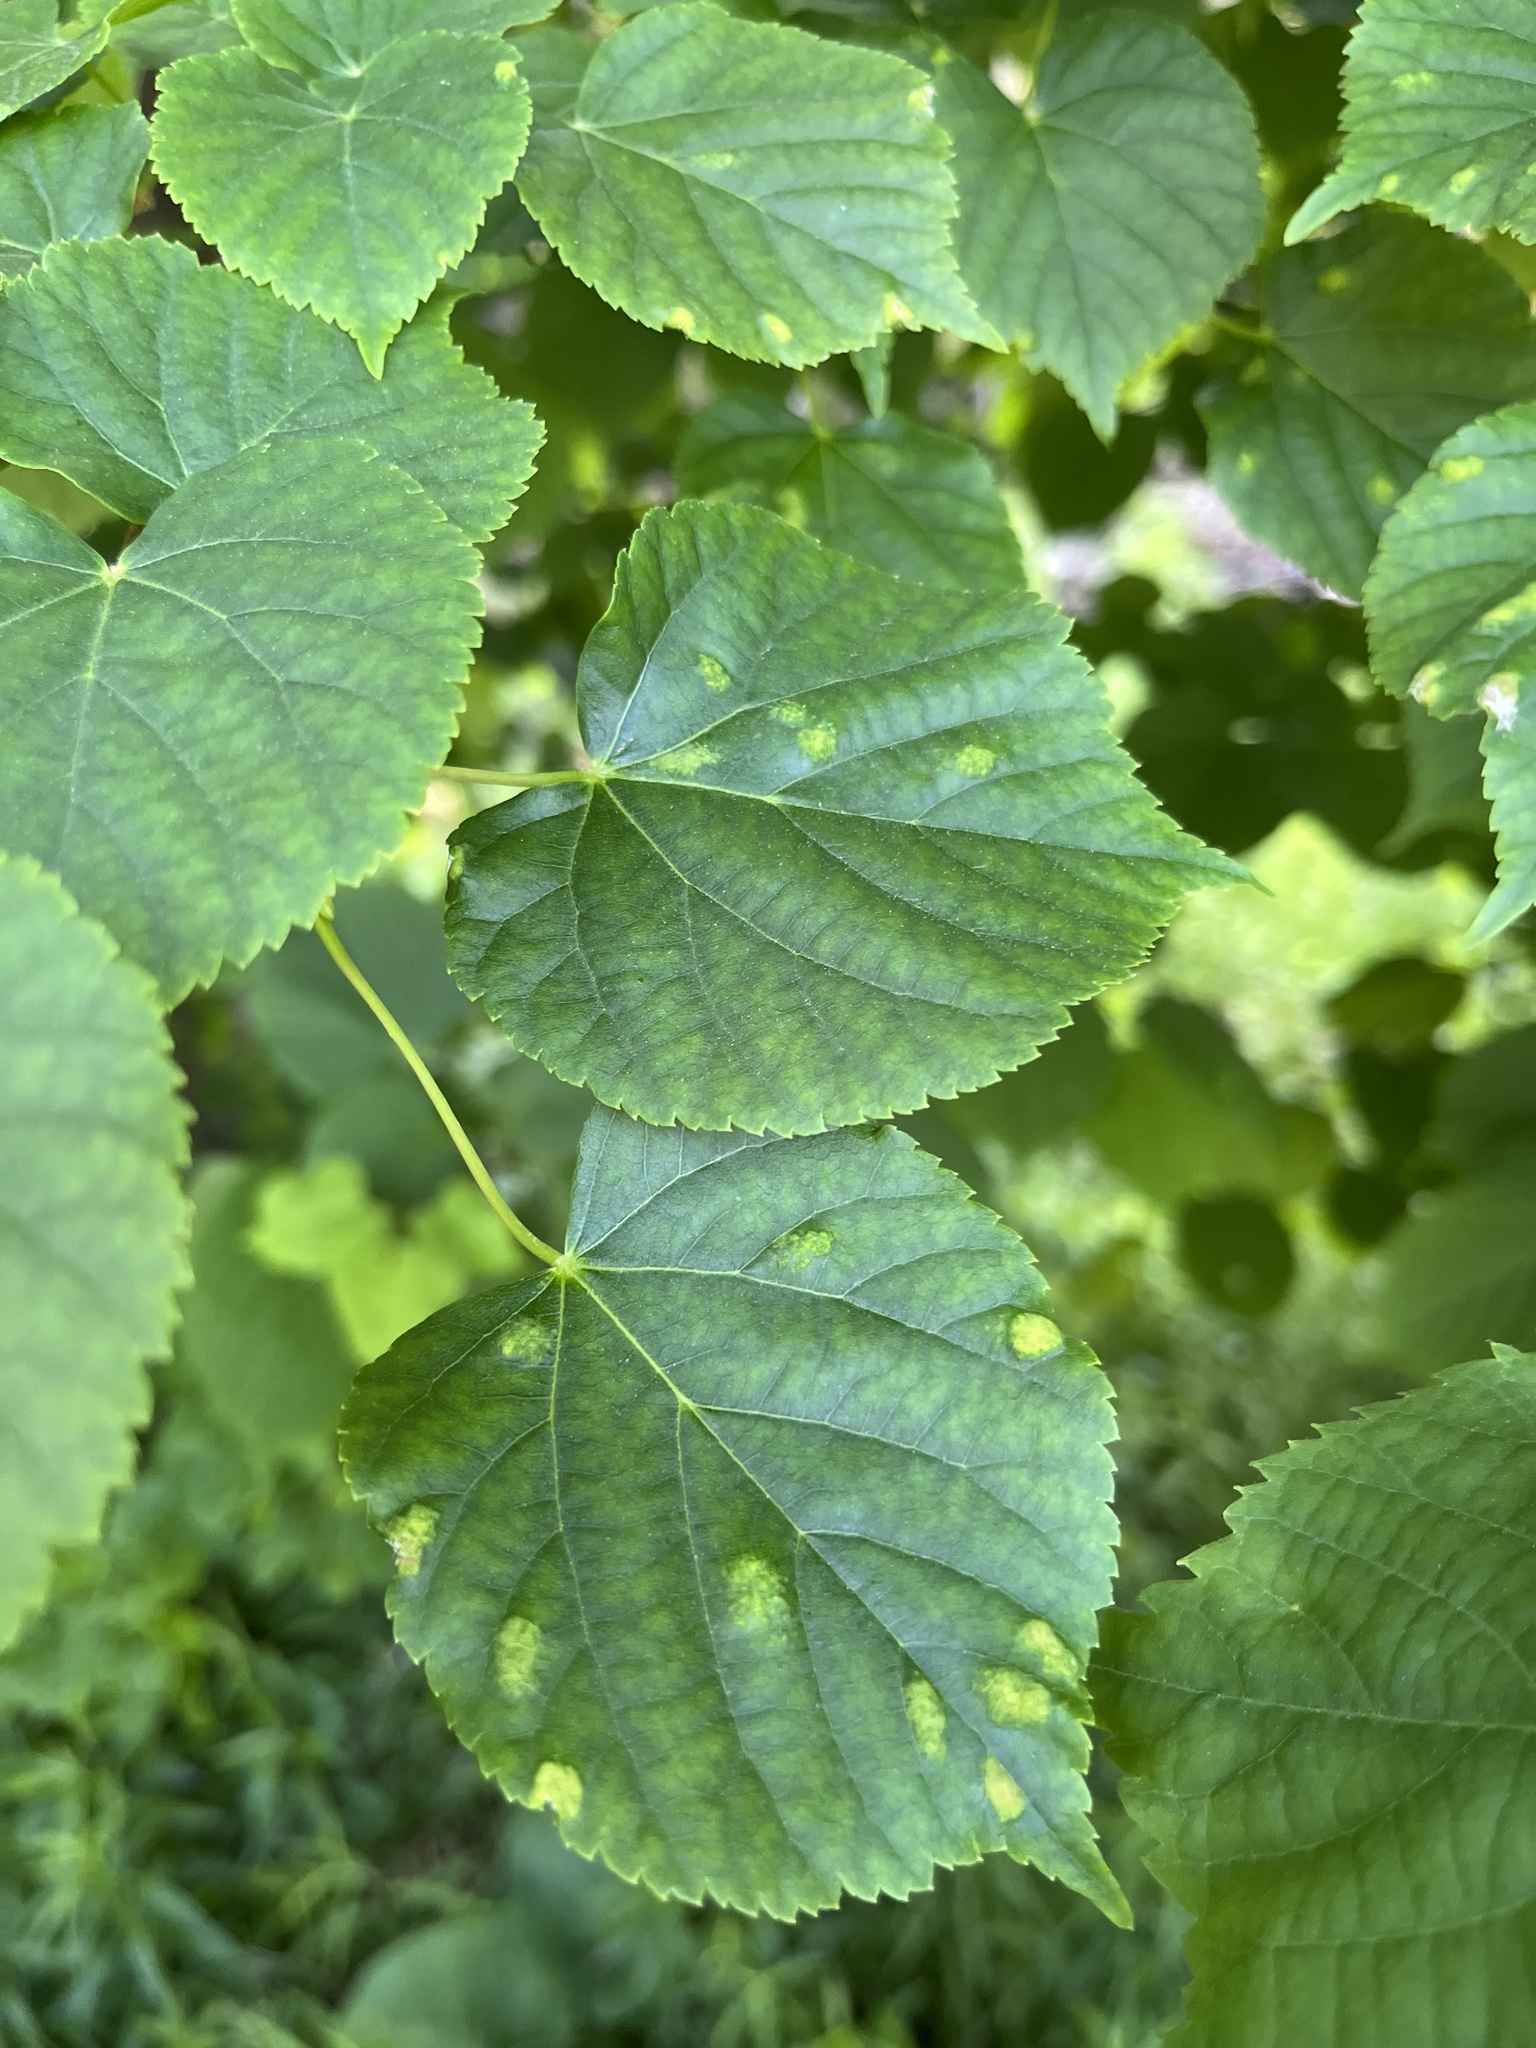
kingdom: Animalia
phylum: Arthropoda
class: Arachnida
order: Trombidiformes
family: Eriophyidae
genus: Eriophyes
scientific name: Eriophyes leiosoma
